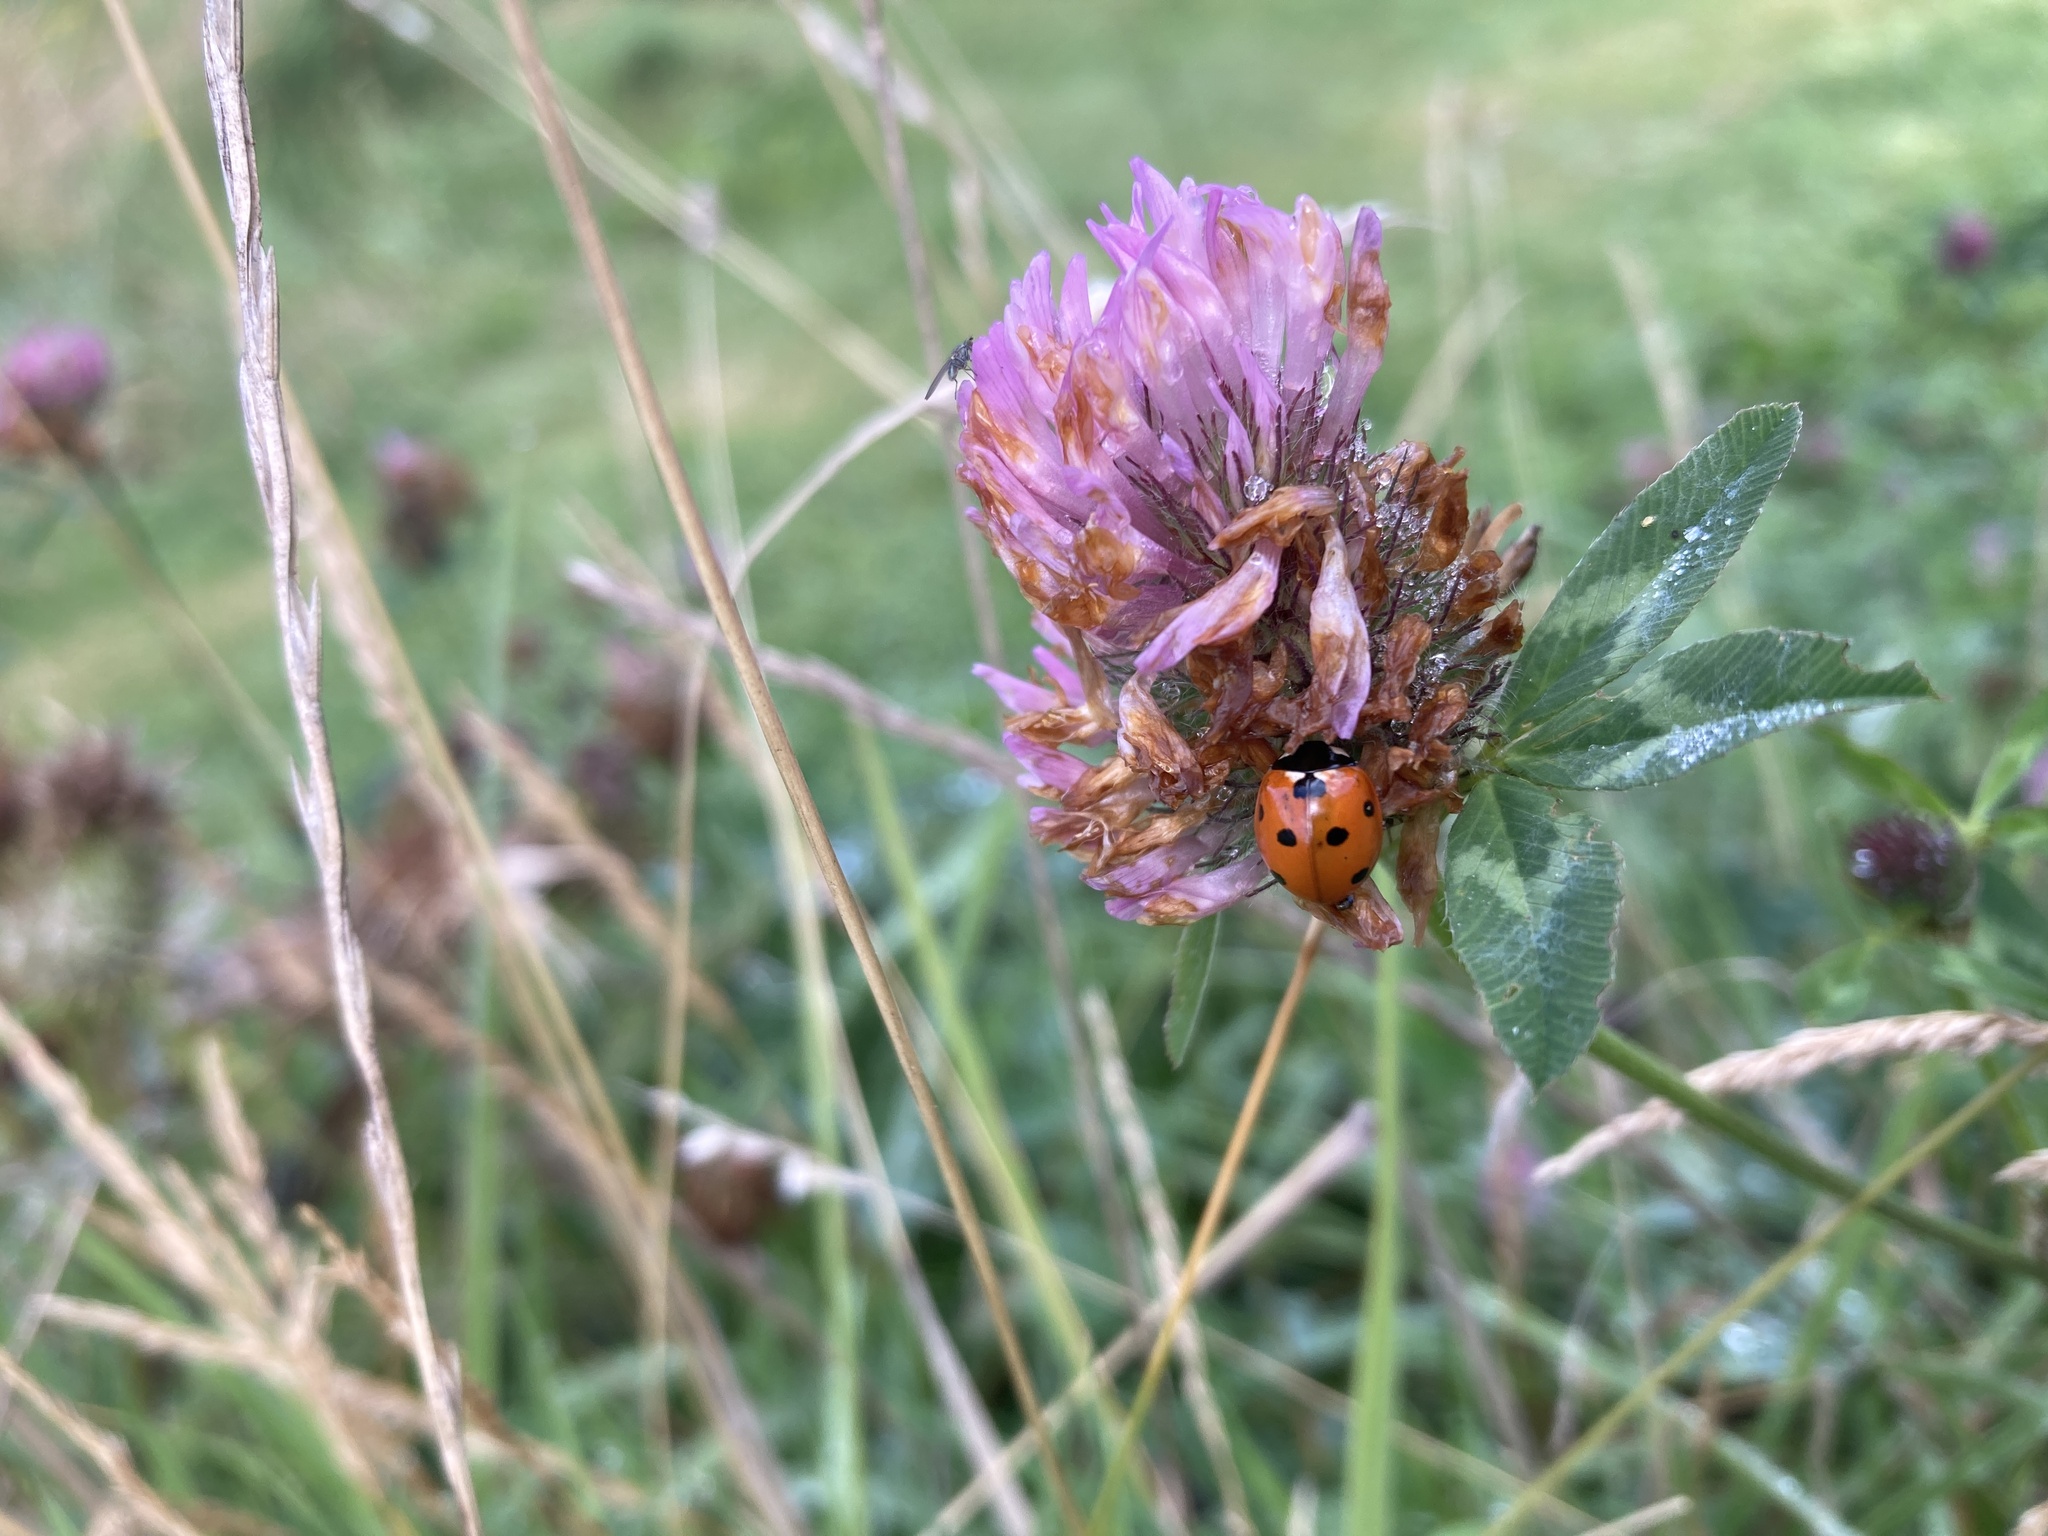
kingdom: Animalia
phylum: Arthropoda
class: Insecta
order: Coleoptera
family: Coccinellidae
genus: Coccinella
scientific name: Coccinella septempunctata
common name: Sevenspotted lady beetle
